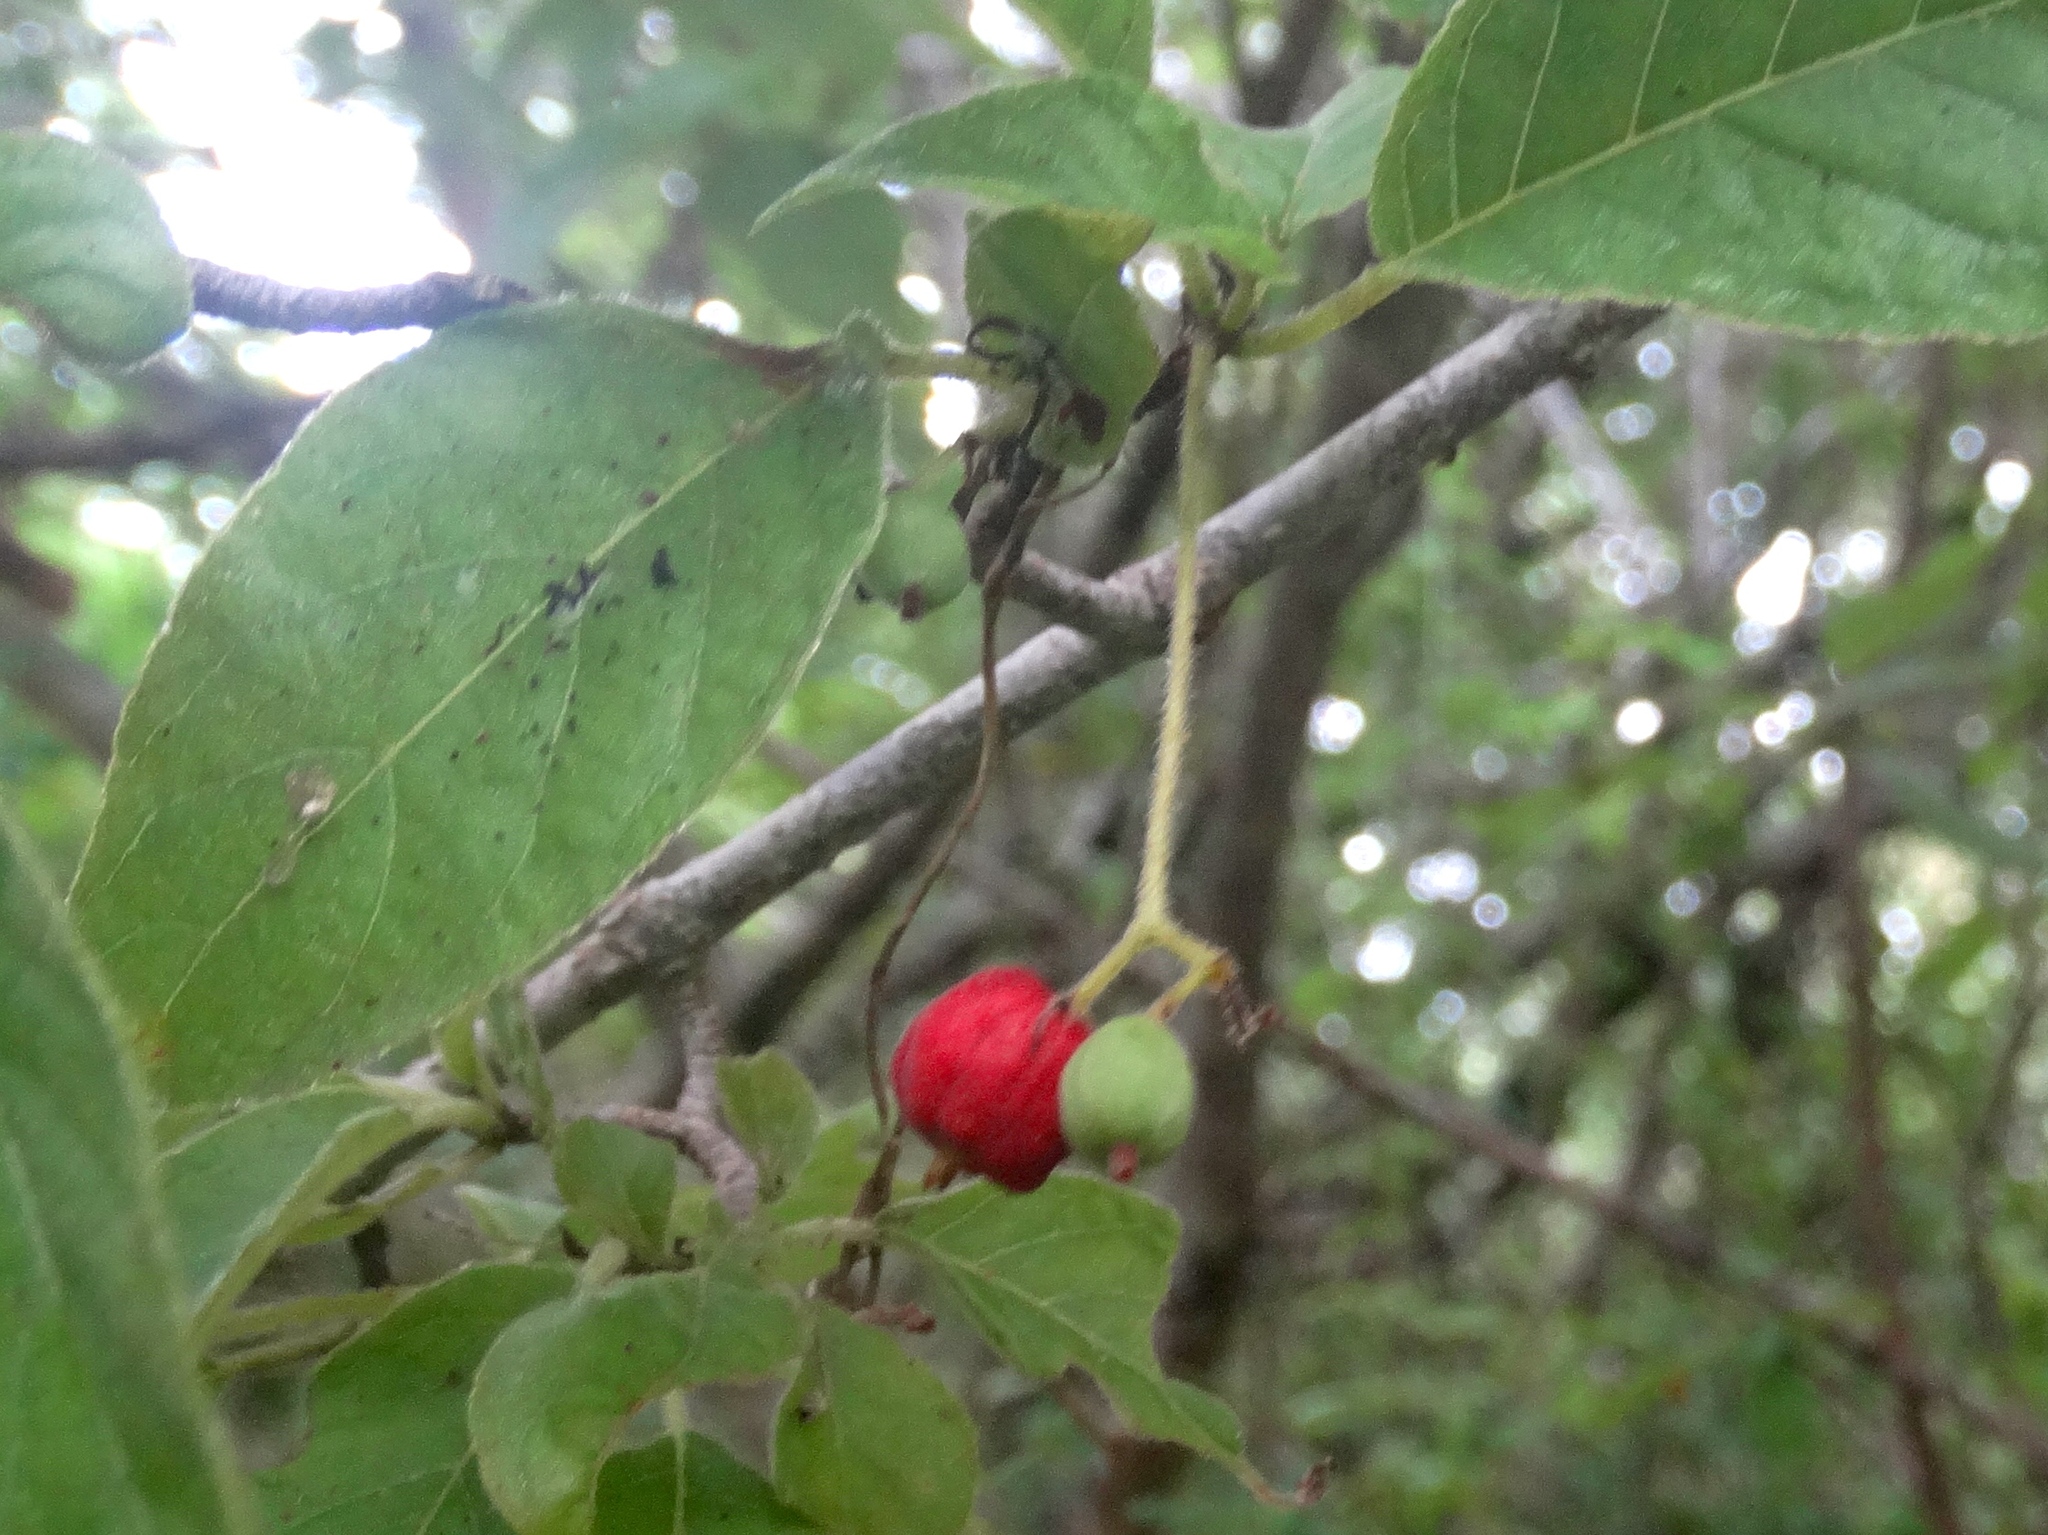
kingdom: Plantae
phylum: Tracheophyta
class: Magnoliopsida
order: Gentianales
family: Rubiaceae
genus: Guettarda
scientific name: Guettarda elliptica
